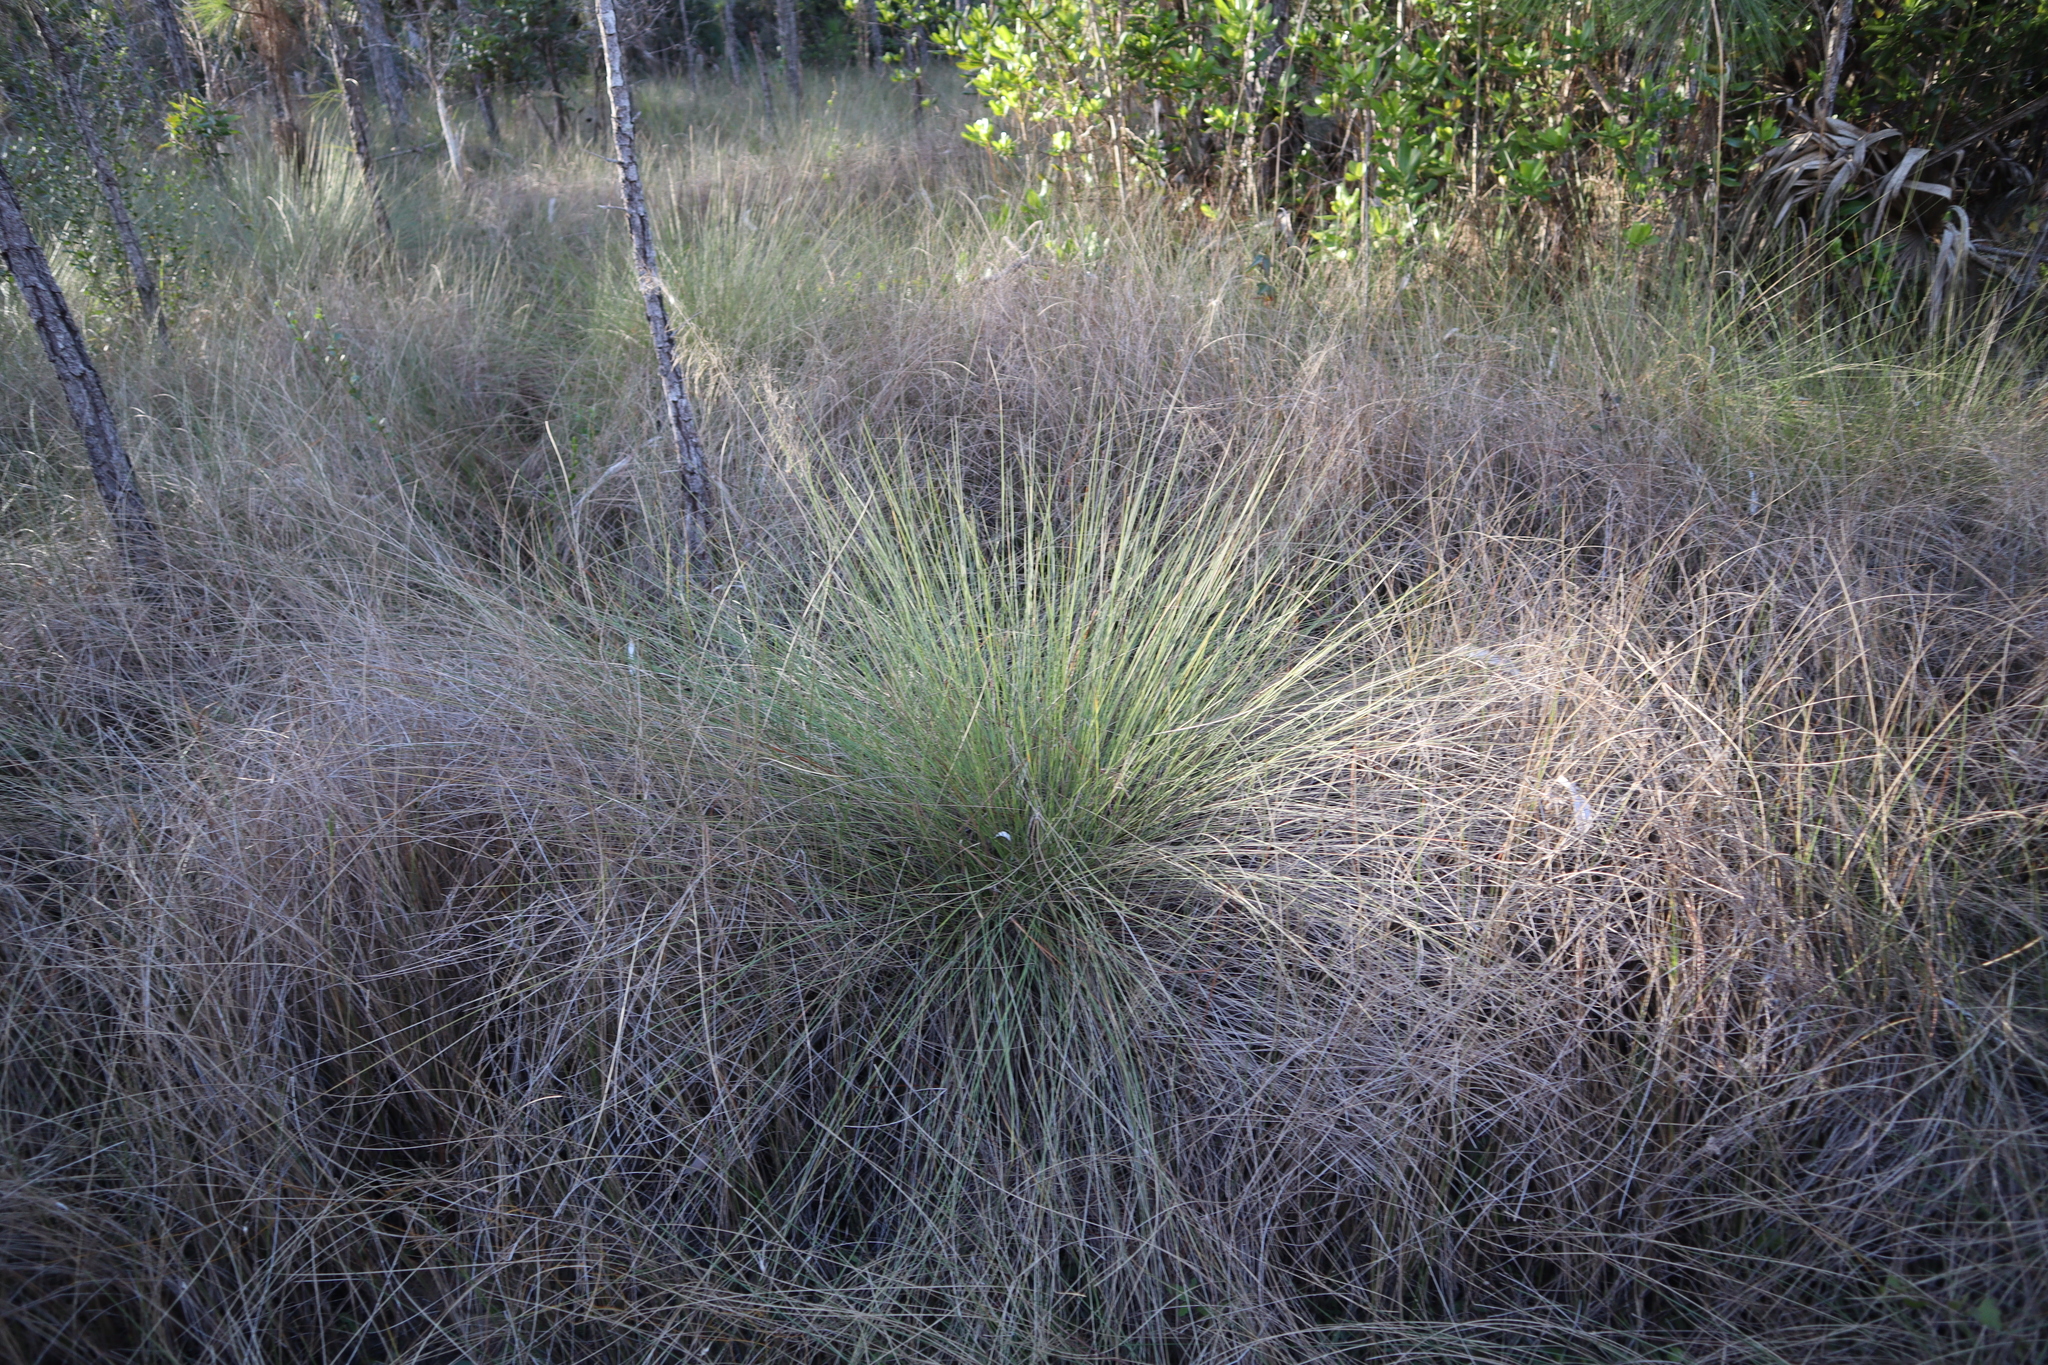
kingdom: Plantae
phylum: Tracheophyta
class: Liliopsida
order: Poales
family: Poaceae
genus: Muhlenbergia
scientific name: Muhlenbergia capillaris
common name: Purple grass
